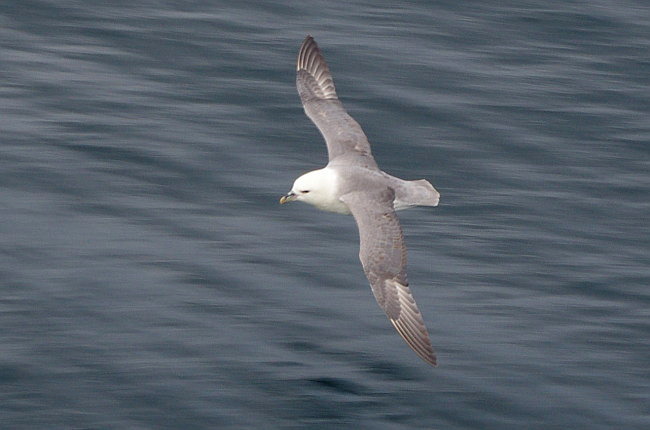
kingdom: Animalia
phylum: Chordata
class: Aves
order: Procellariiformes
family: Procellariidae
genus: Fulmarus
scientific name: Fulmarus glacialis
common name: Northern fulmar
